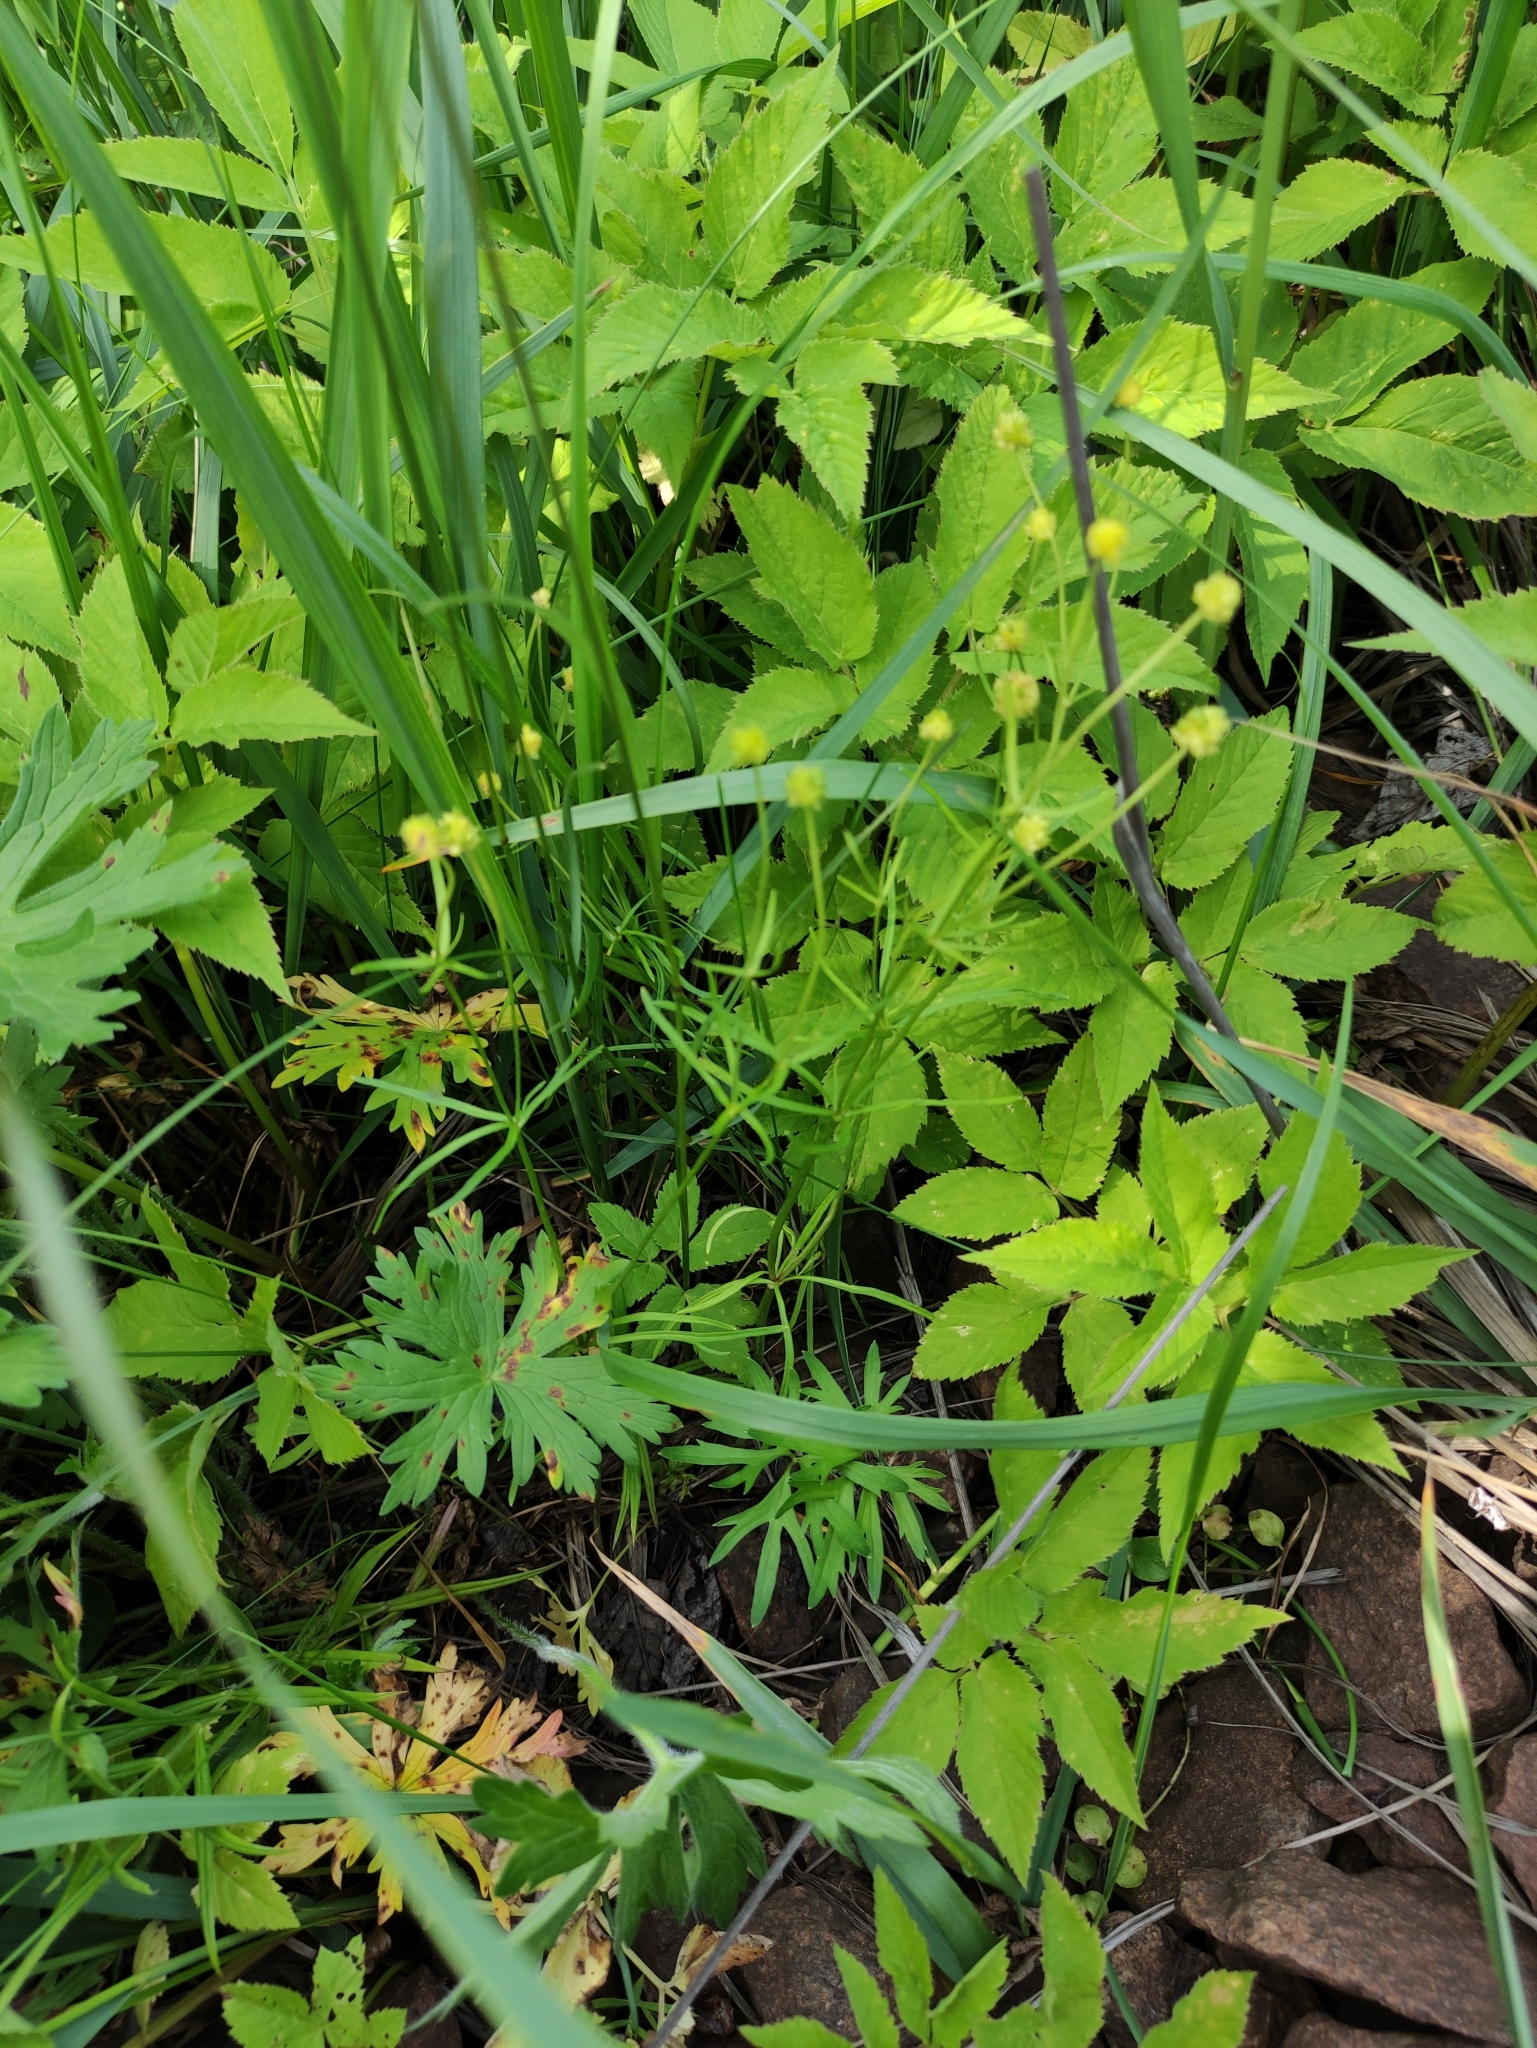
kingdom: Plantae
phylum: Tracheophyta
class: Magnoliopsida
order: Ranunculales
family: Ranunculaceae
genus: Ranunculus
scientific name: Ranunculus auricomus
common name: Goldilocks buttercup
